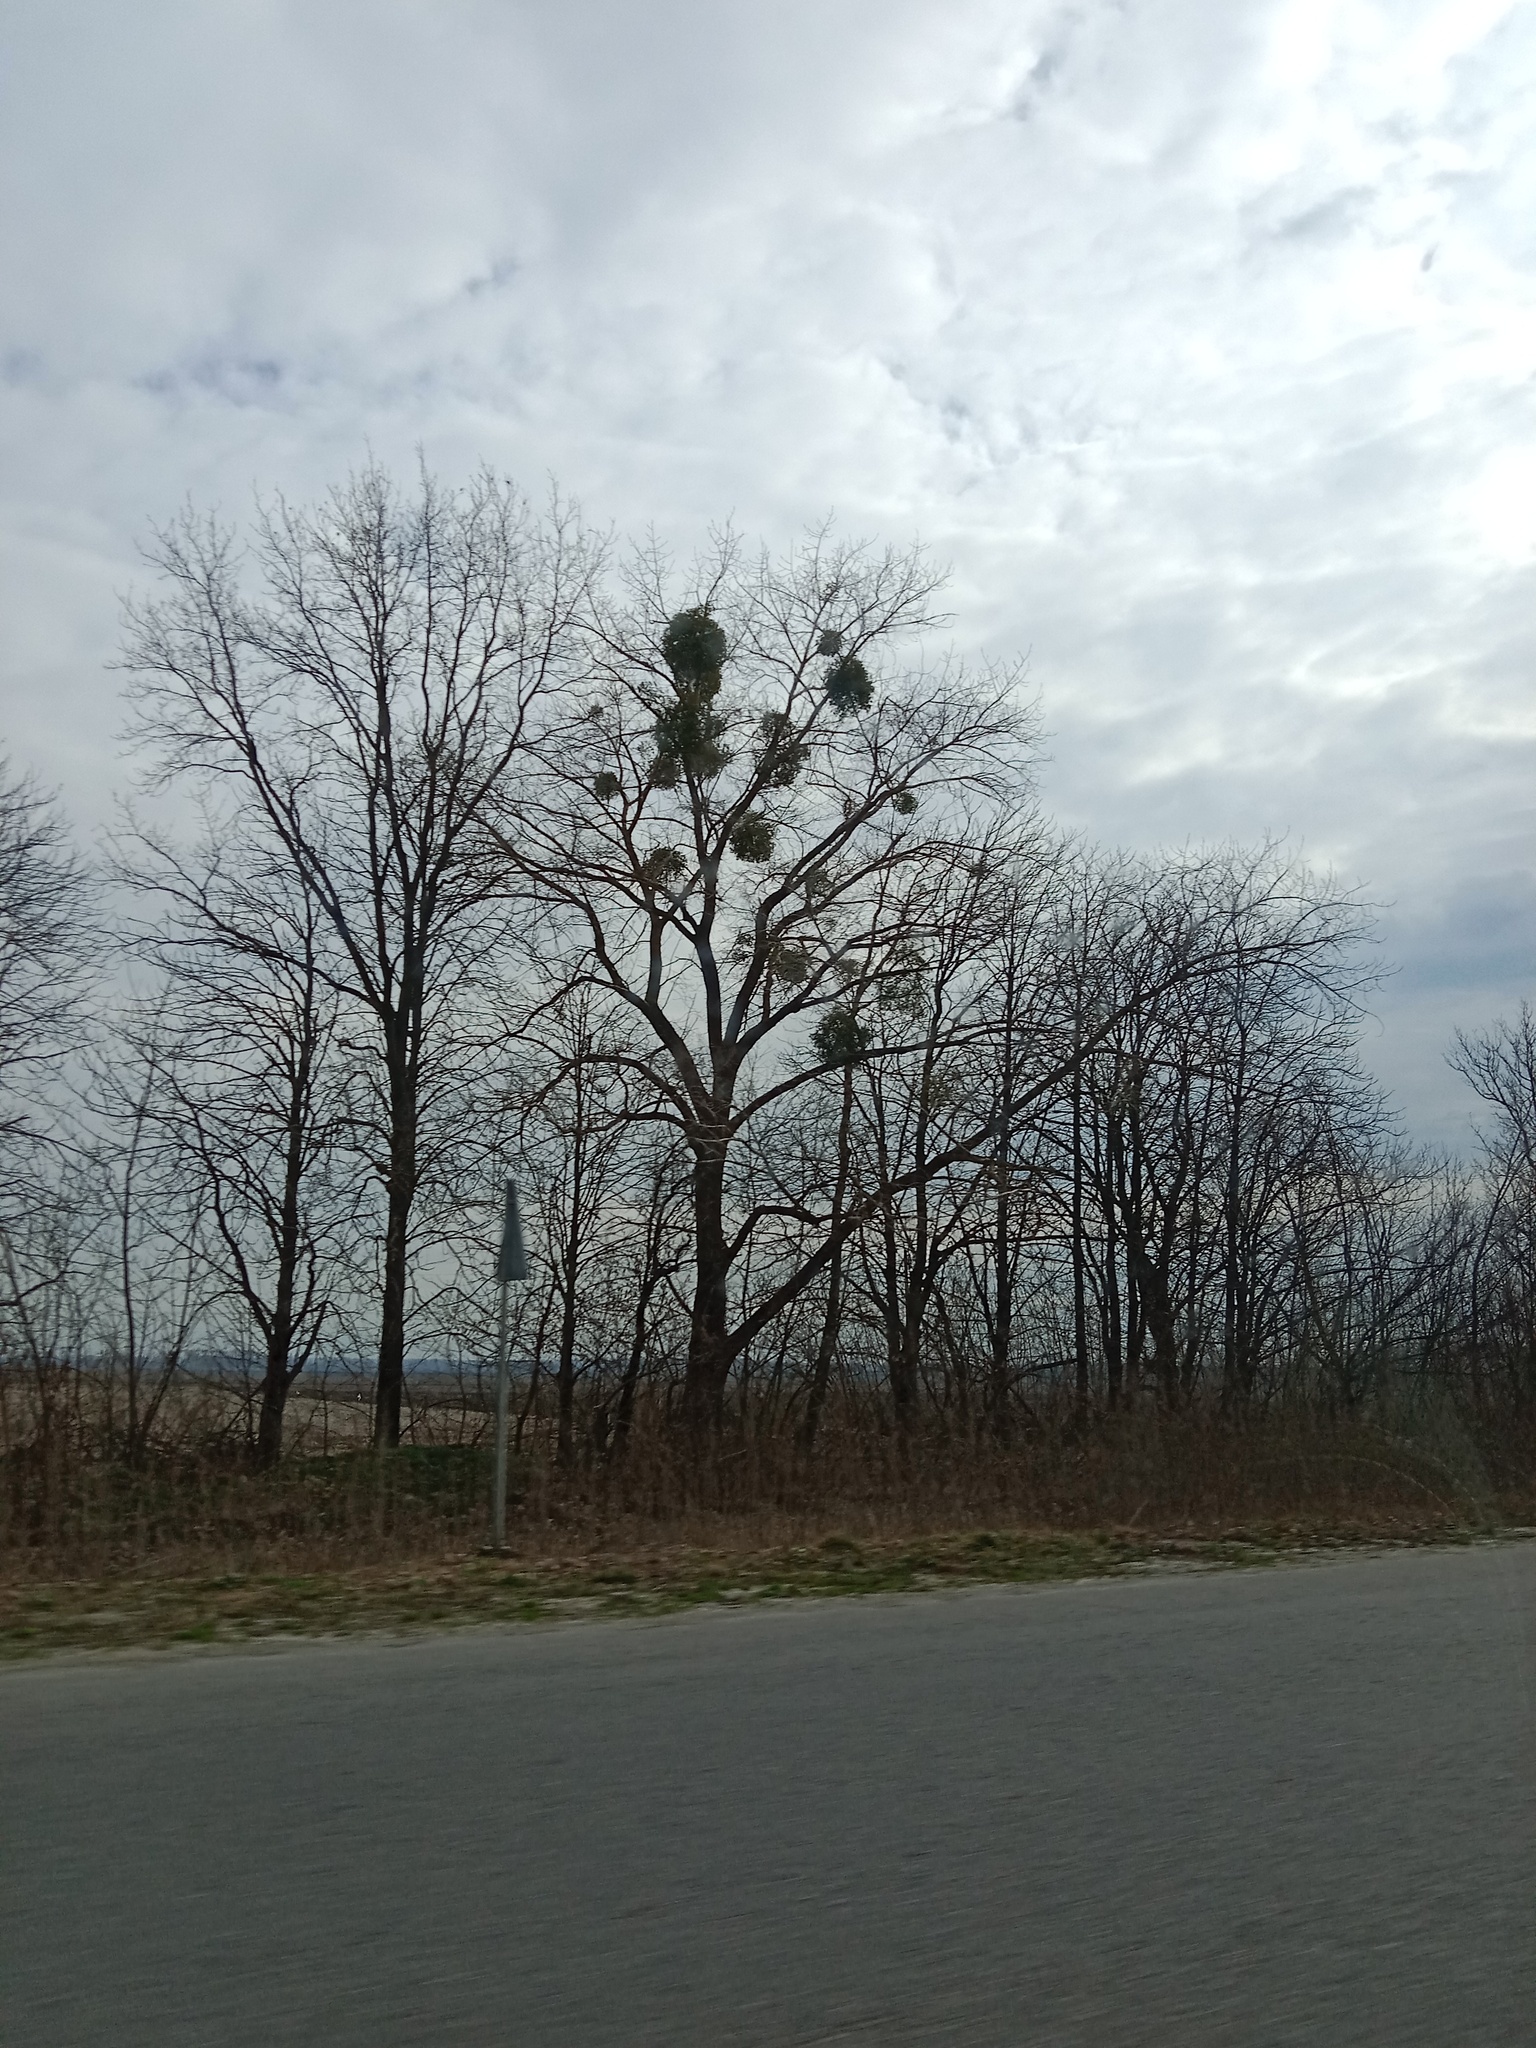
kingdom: Plantae
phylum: Tracheophyta
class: Magnoliopsida
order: Santalales
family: Viscaceae
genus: Viscum
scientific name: Viscum album
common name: Mistletoe
